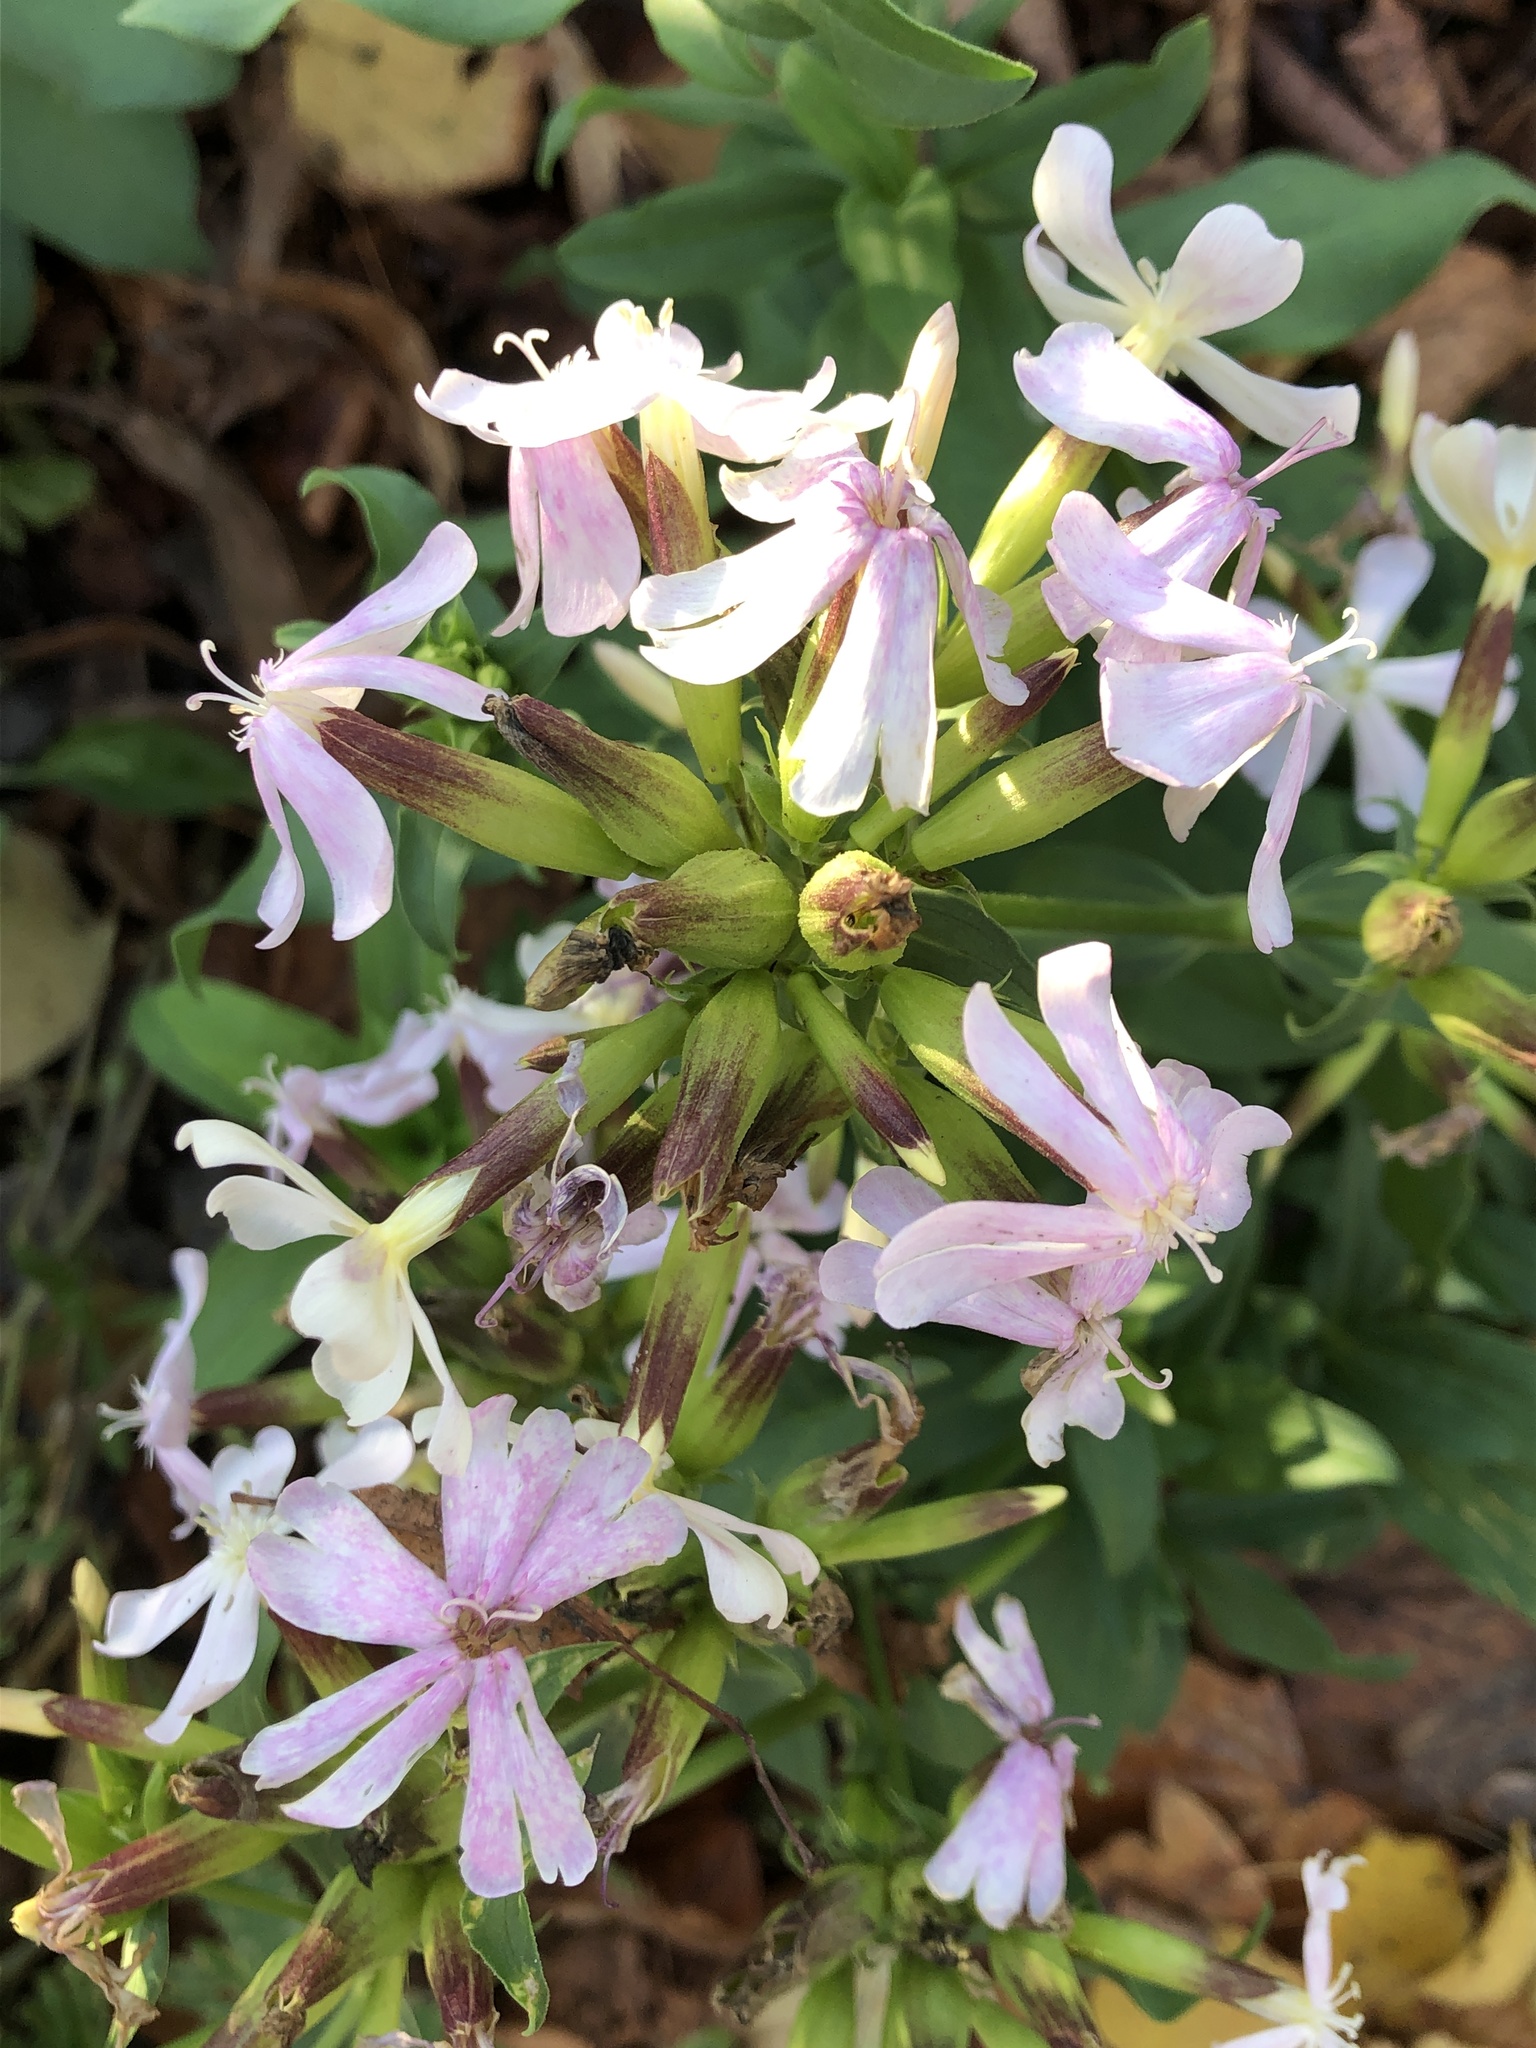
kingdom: Plantae
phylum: Tracheophyta
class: Magnoliopsida
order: Caryophyllales
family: Caryophyllaceae
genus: Saponaria
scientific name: Saponaria officinalis
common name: Soapwort
